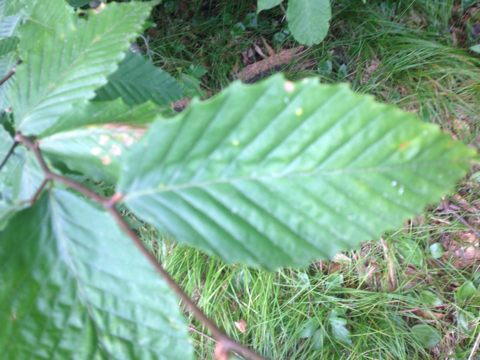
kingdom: Plantae
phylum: Tracheophyta
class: Magnoliopsida
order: Fagales
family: Fagaceae
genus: Fagus
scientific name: Fagus grandifolia
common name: American beech
